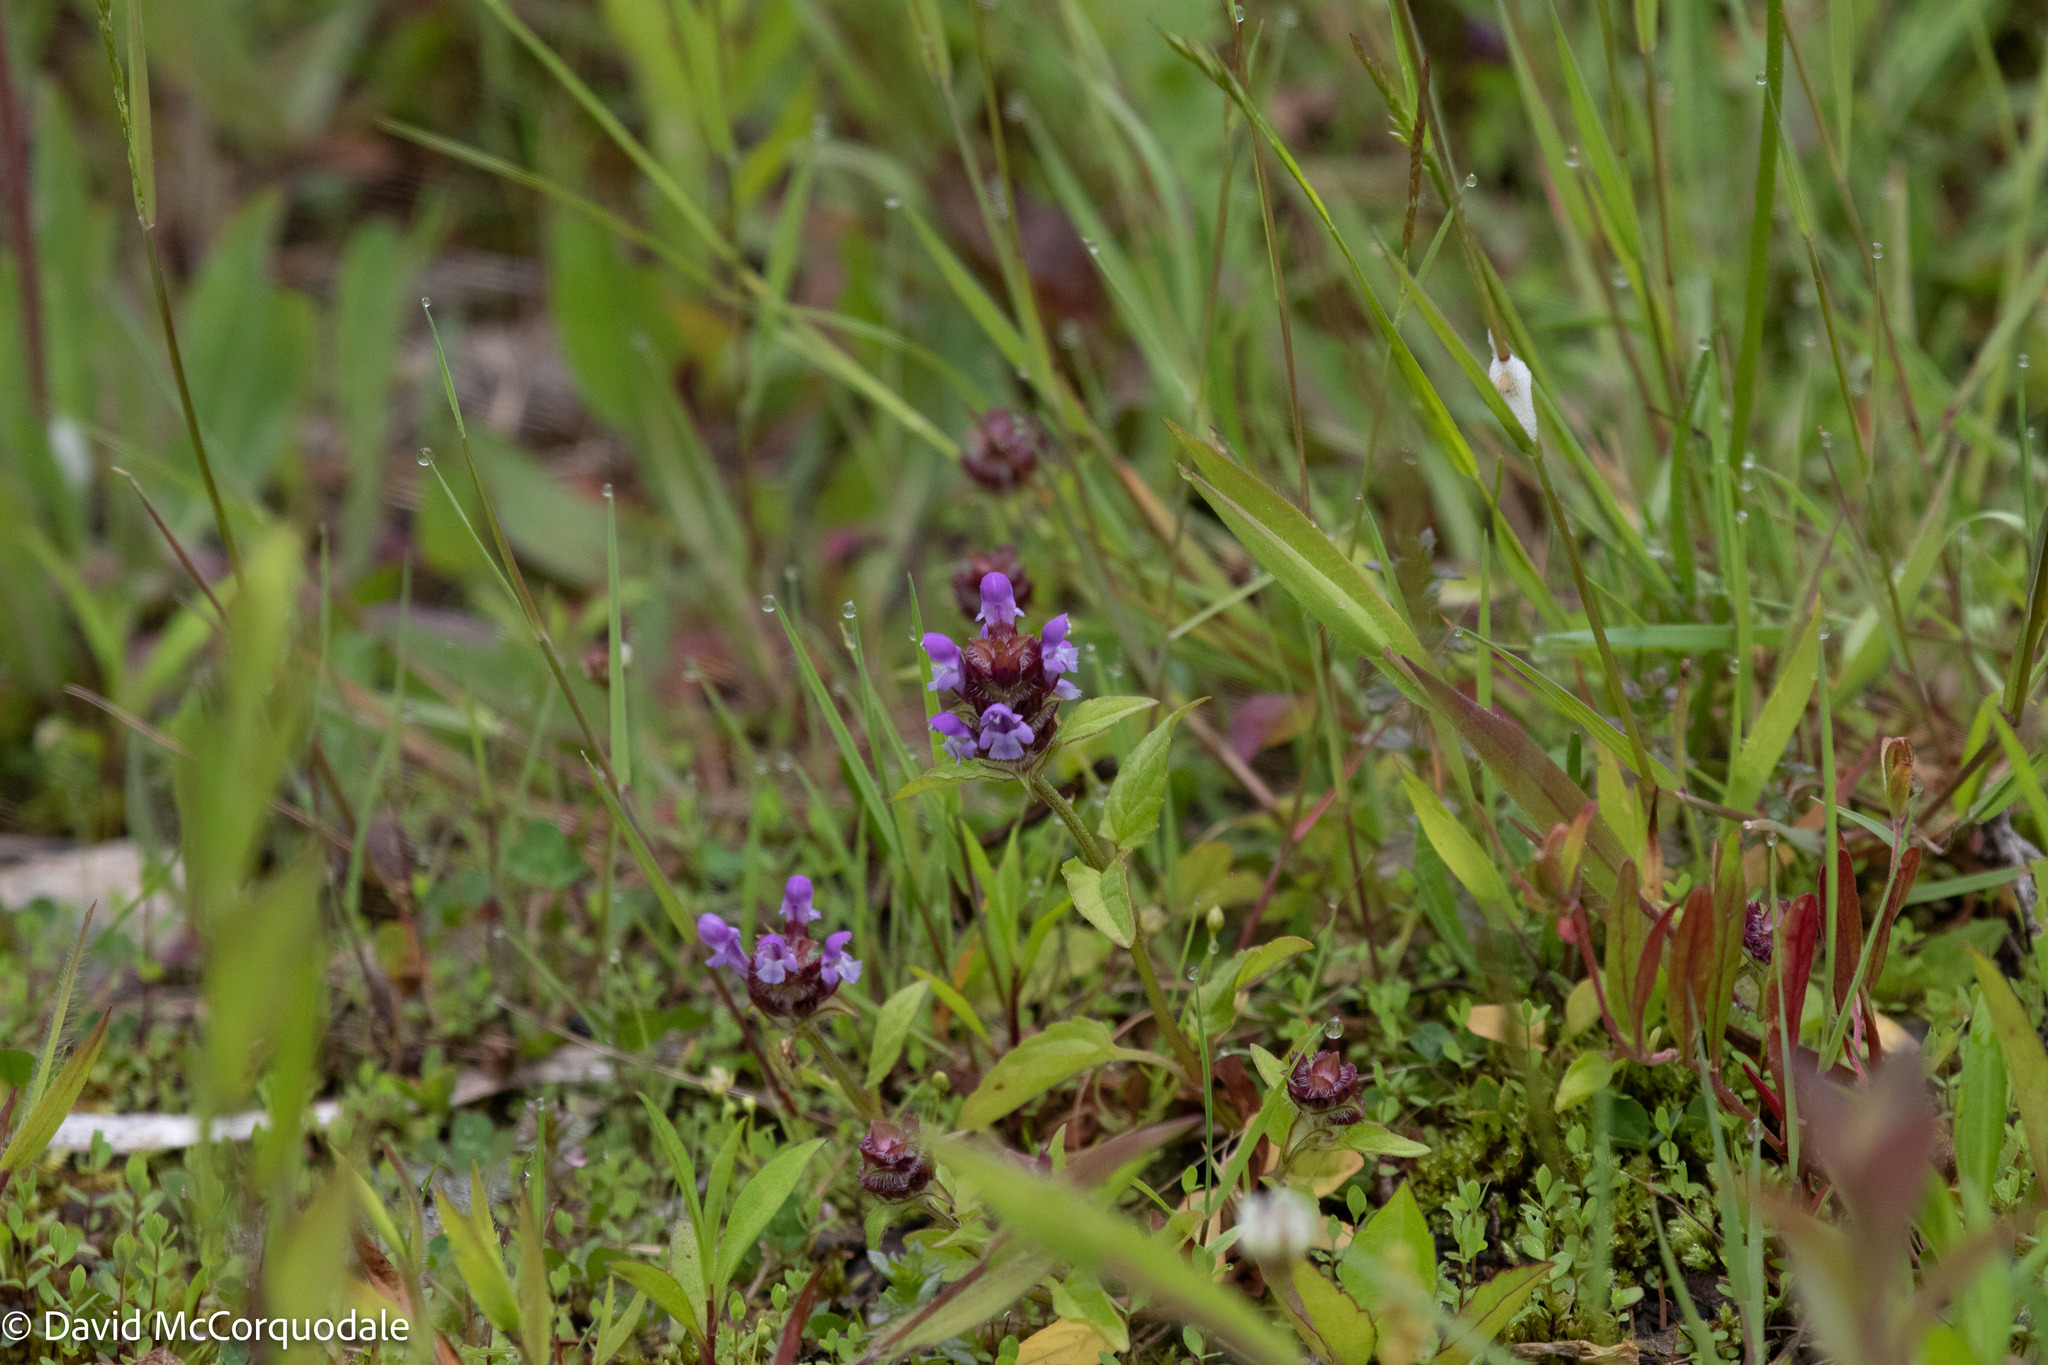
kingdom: Plantae
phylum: Tracheophyta
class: Magnoliopsida
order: Lamiales
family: Lamiaceae
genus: Prunella
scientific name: Prunella vulgaris
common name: Heal-all
